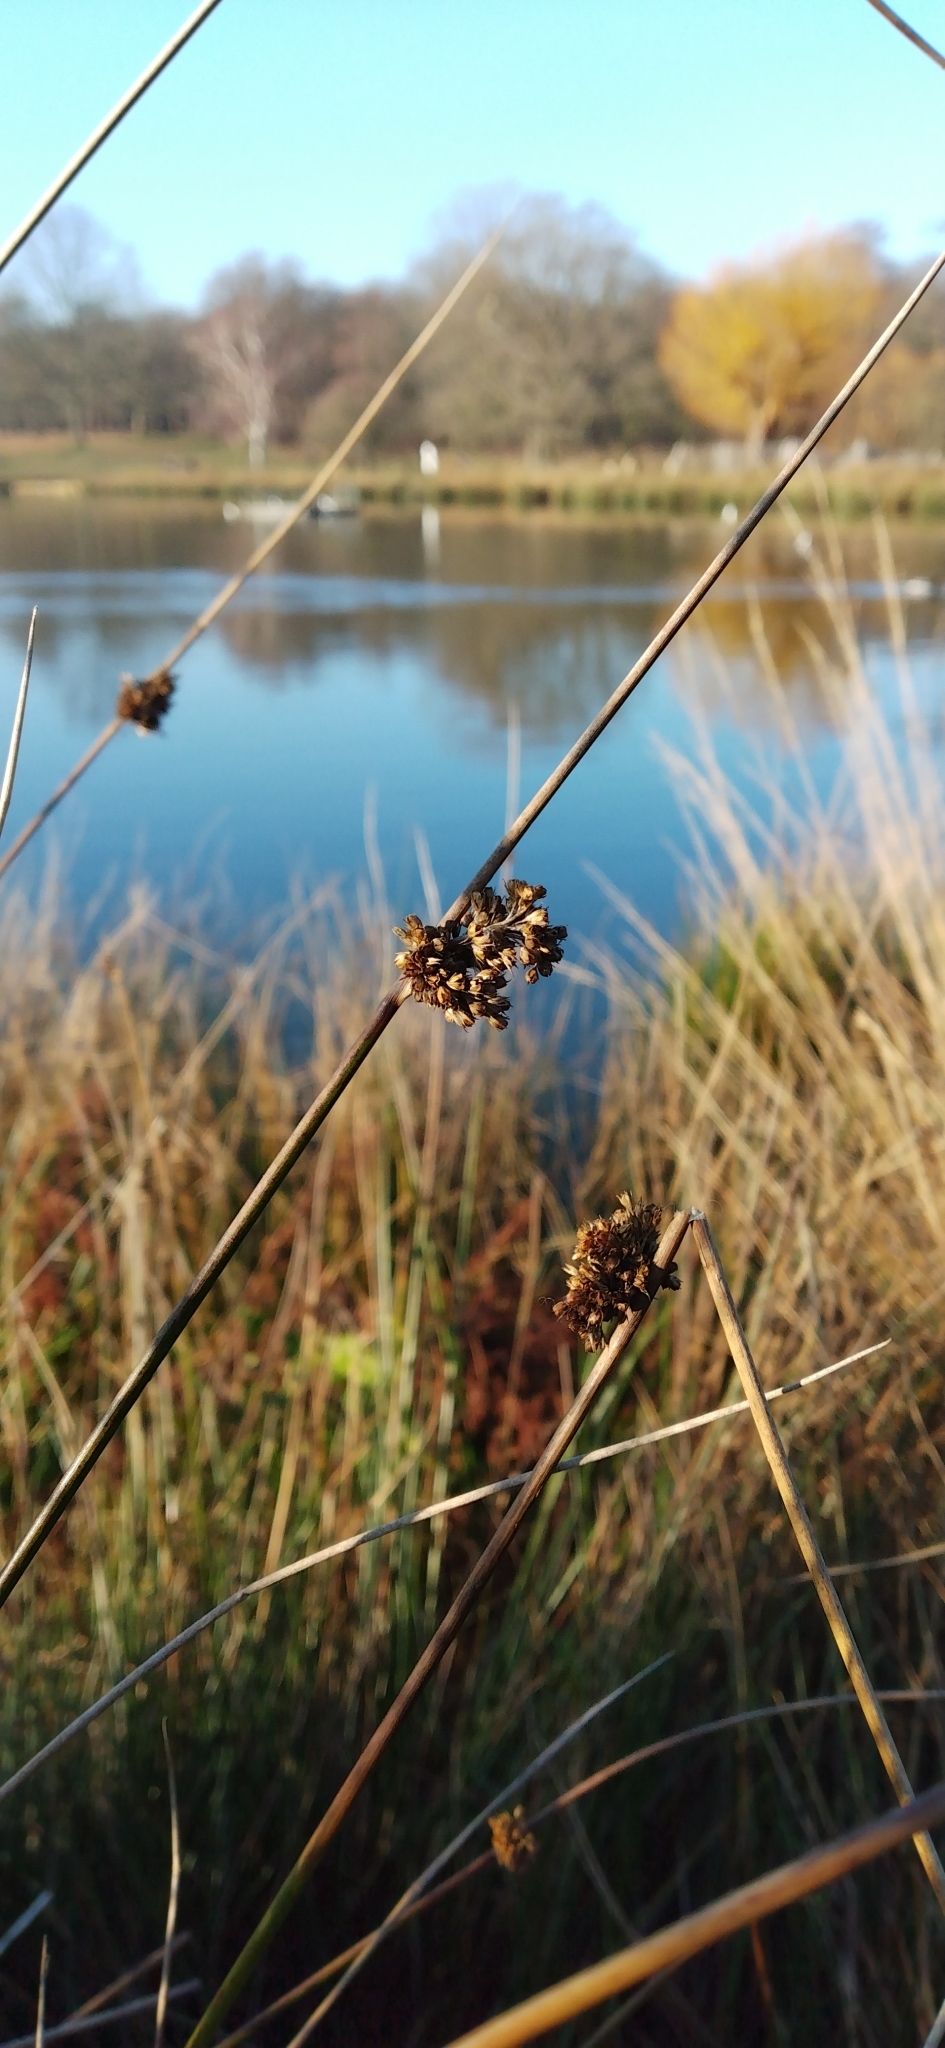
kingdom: Plantae
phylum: Tracheophyta
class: Liliopsida
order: Poales
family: Juncaceae
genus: Juncus
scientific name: Juncus effusus
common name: Soft rush
